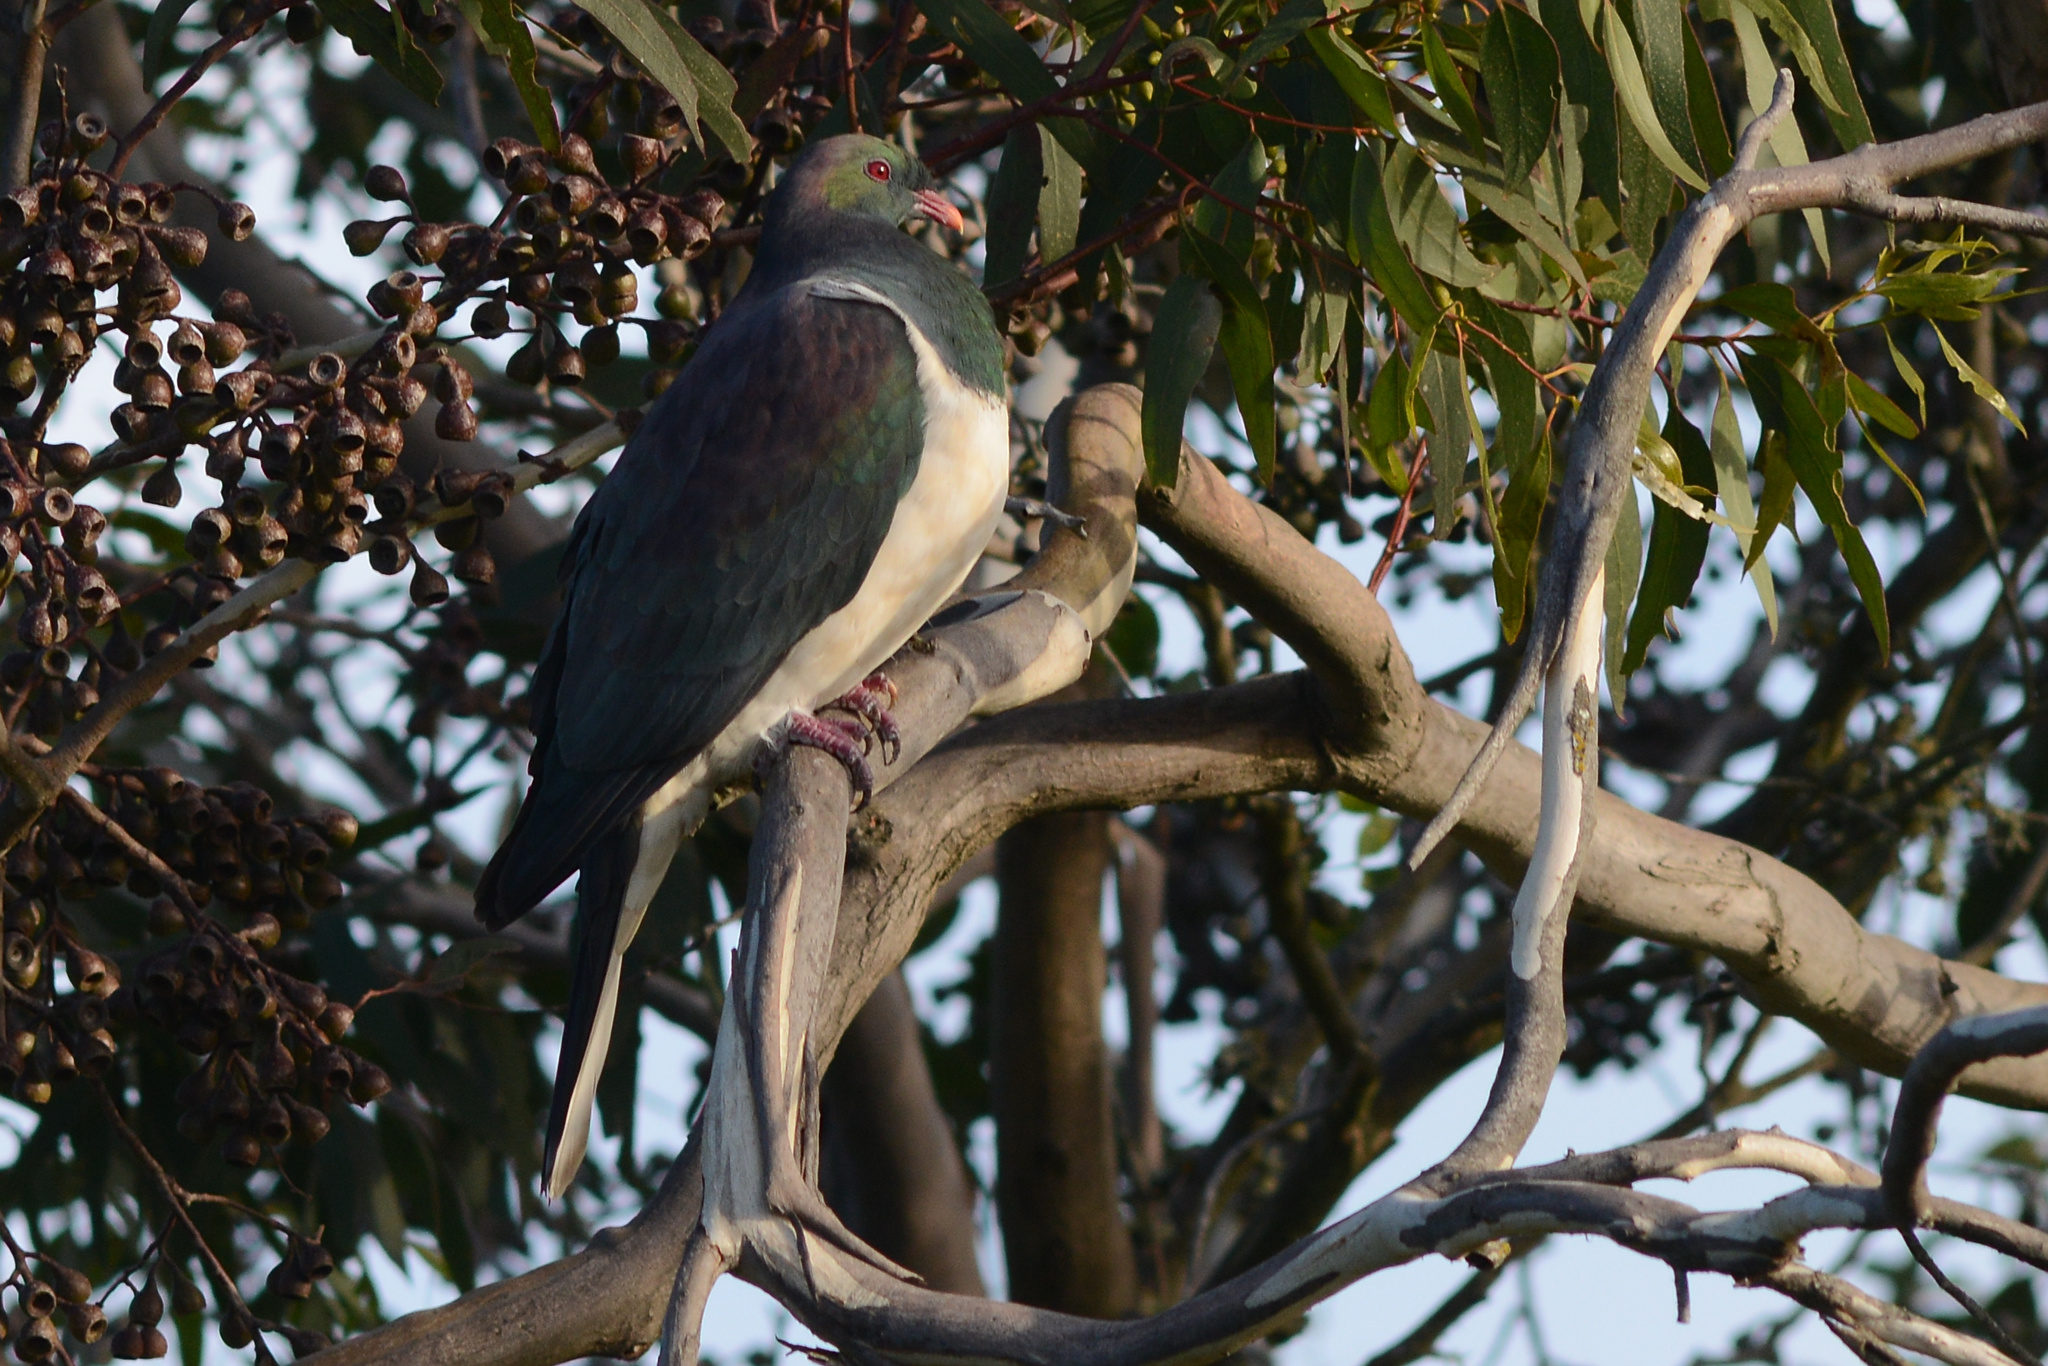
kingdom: Animalia
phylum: Chordata
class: Aves
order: Columbiformes
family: Columbidae
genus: Hemiphaga
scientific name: Hemiphaga novaeseelandiae
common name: New zealand pigeon
